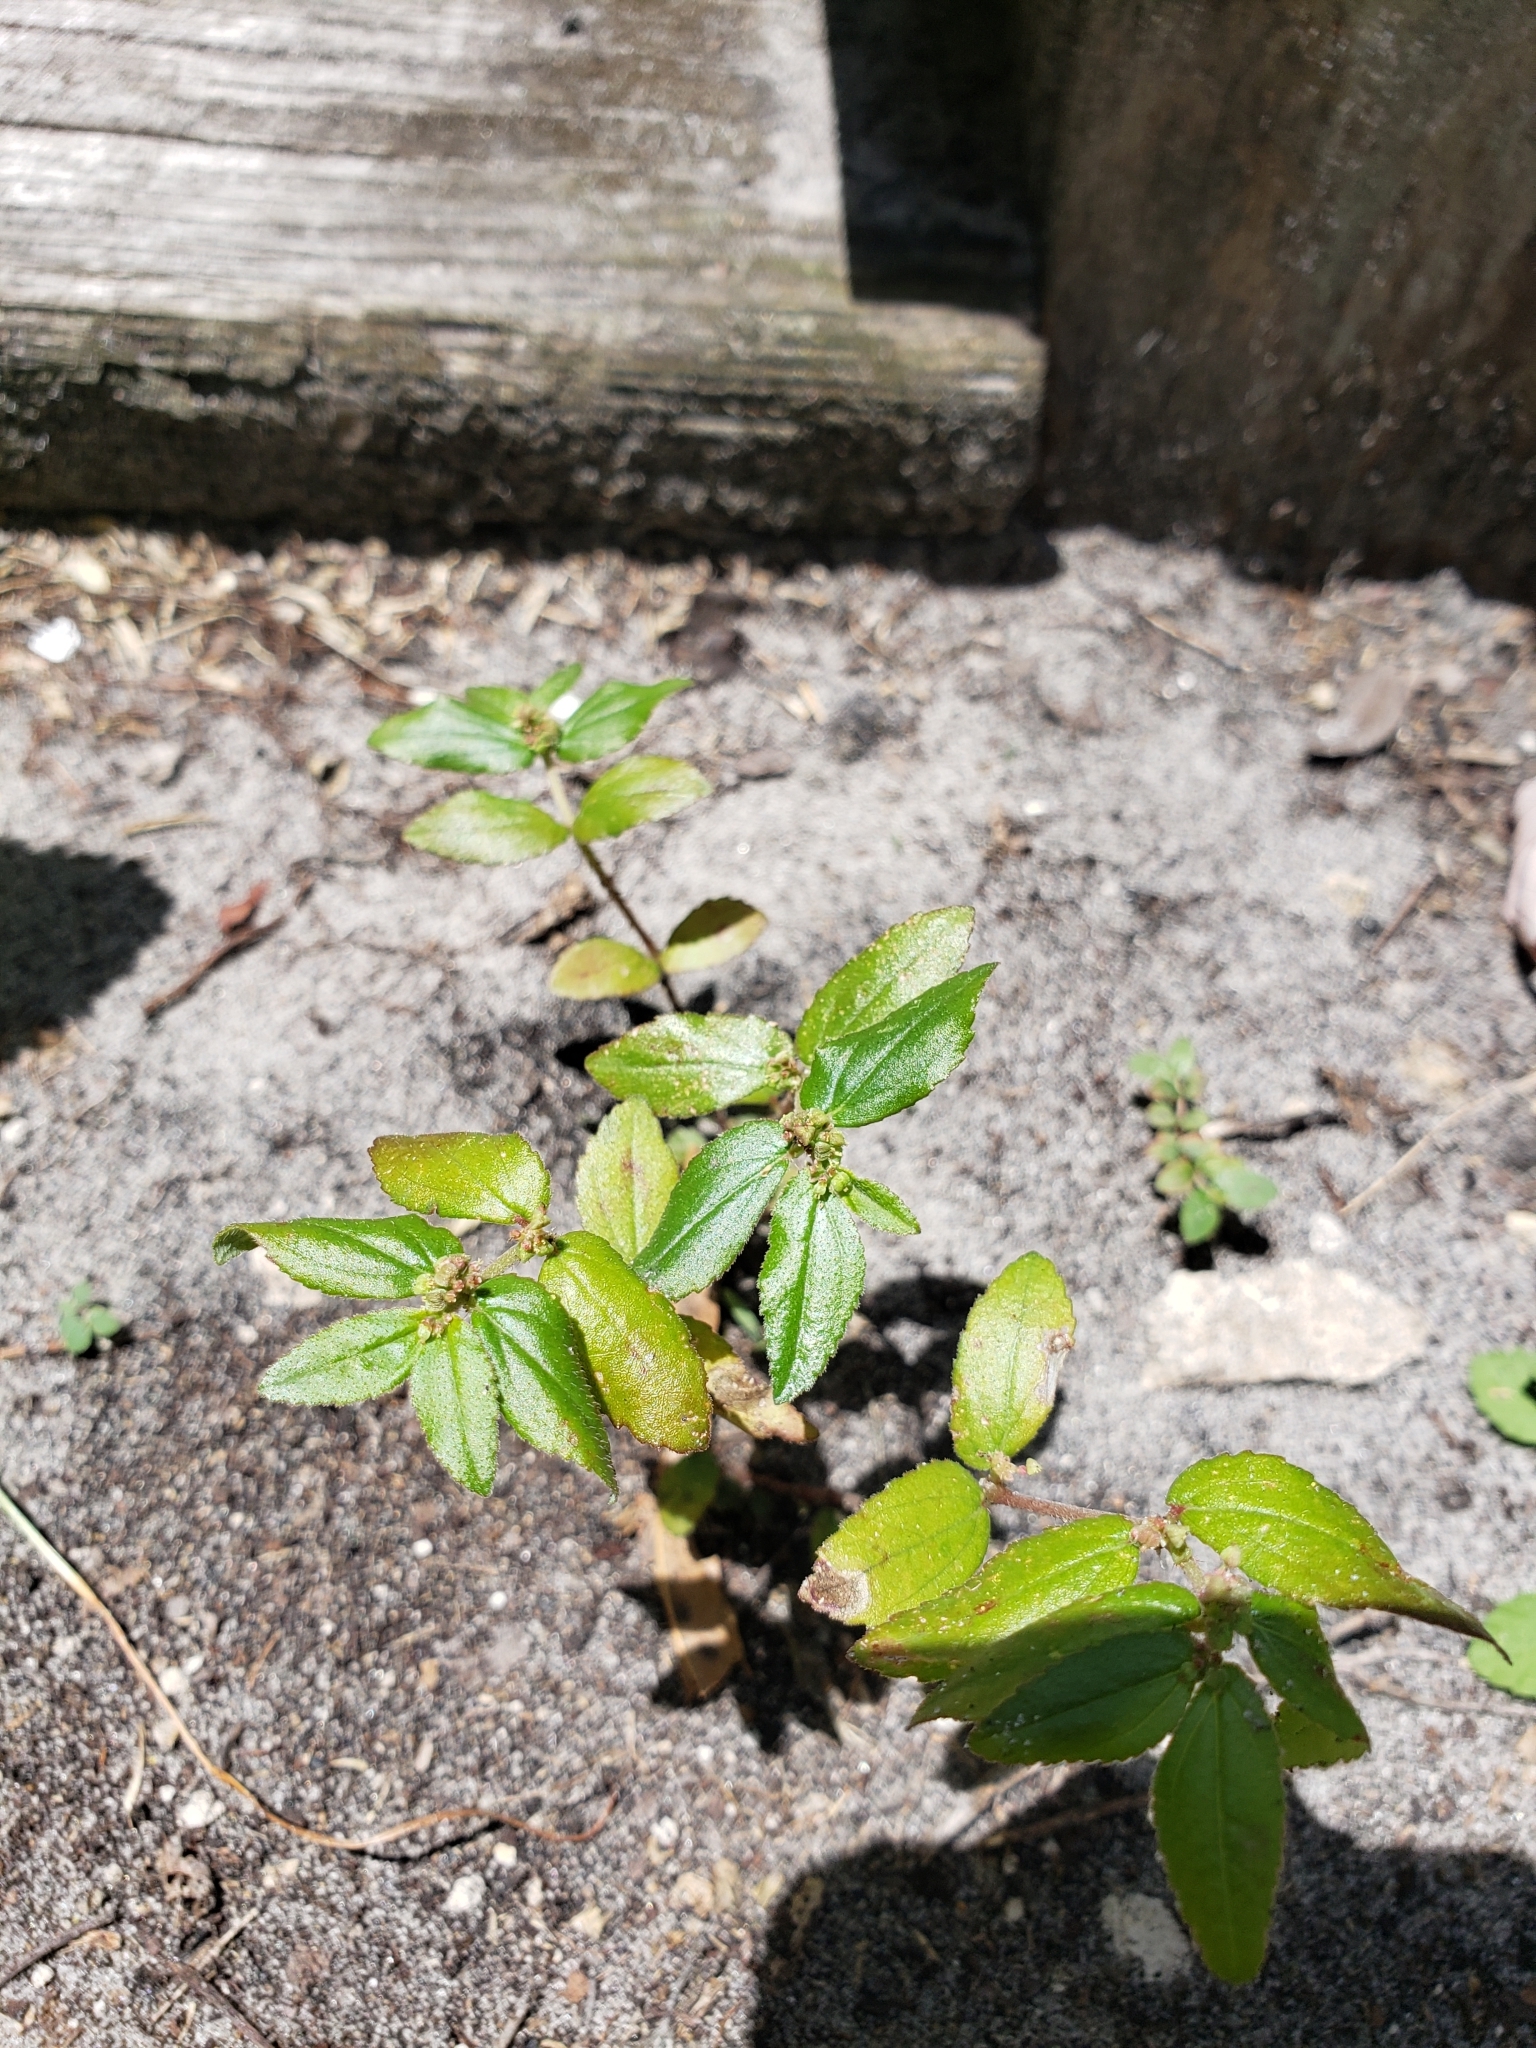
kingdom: Plantae
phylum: Tracheophyta
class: Magnoliopsida
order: Malpighiales
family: Euphorbiaceae
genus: Euphorbia
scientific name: Euphorbia hirta
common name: Pillpod sandmat
